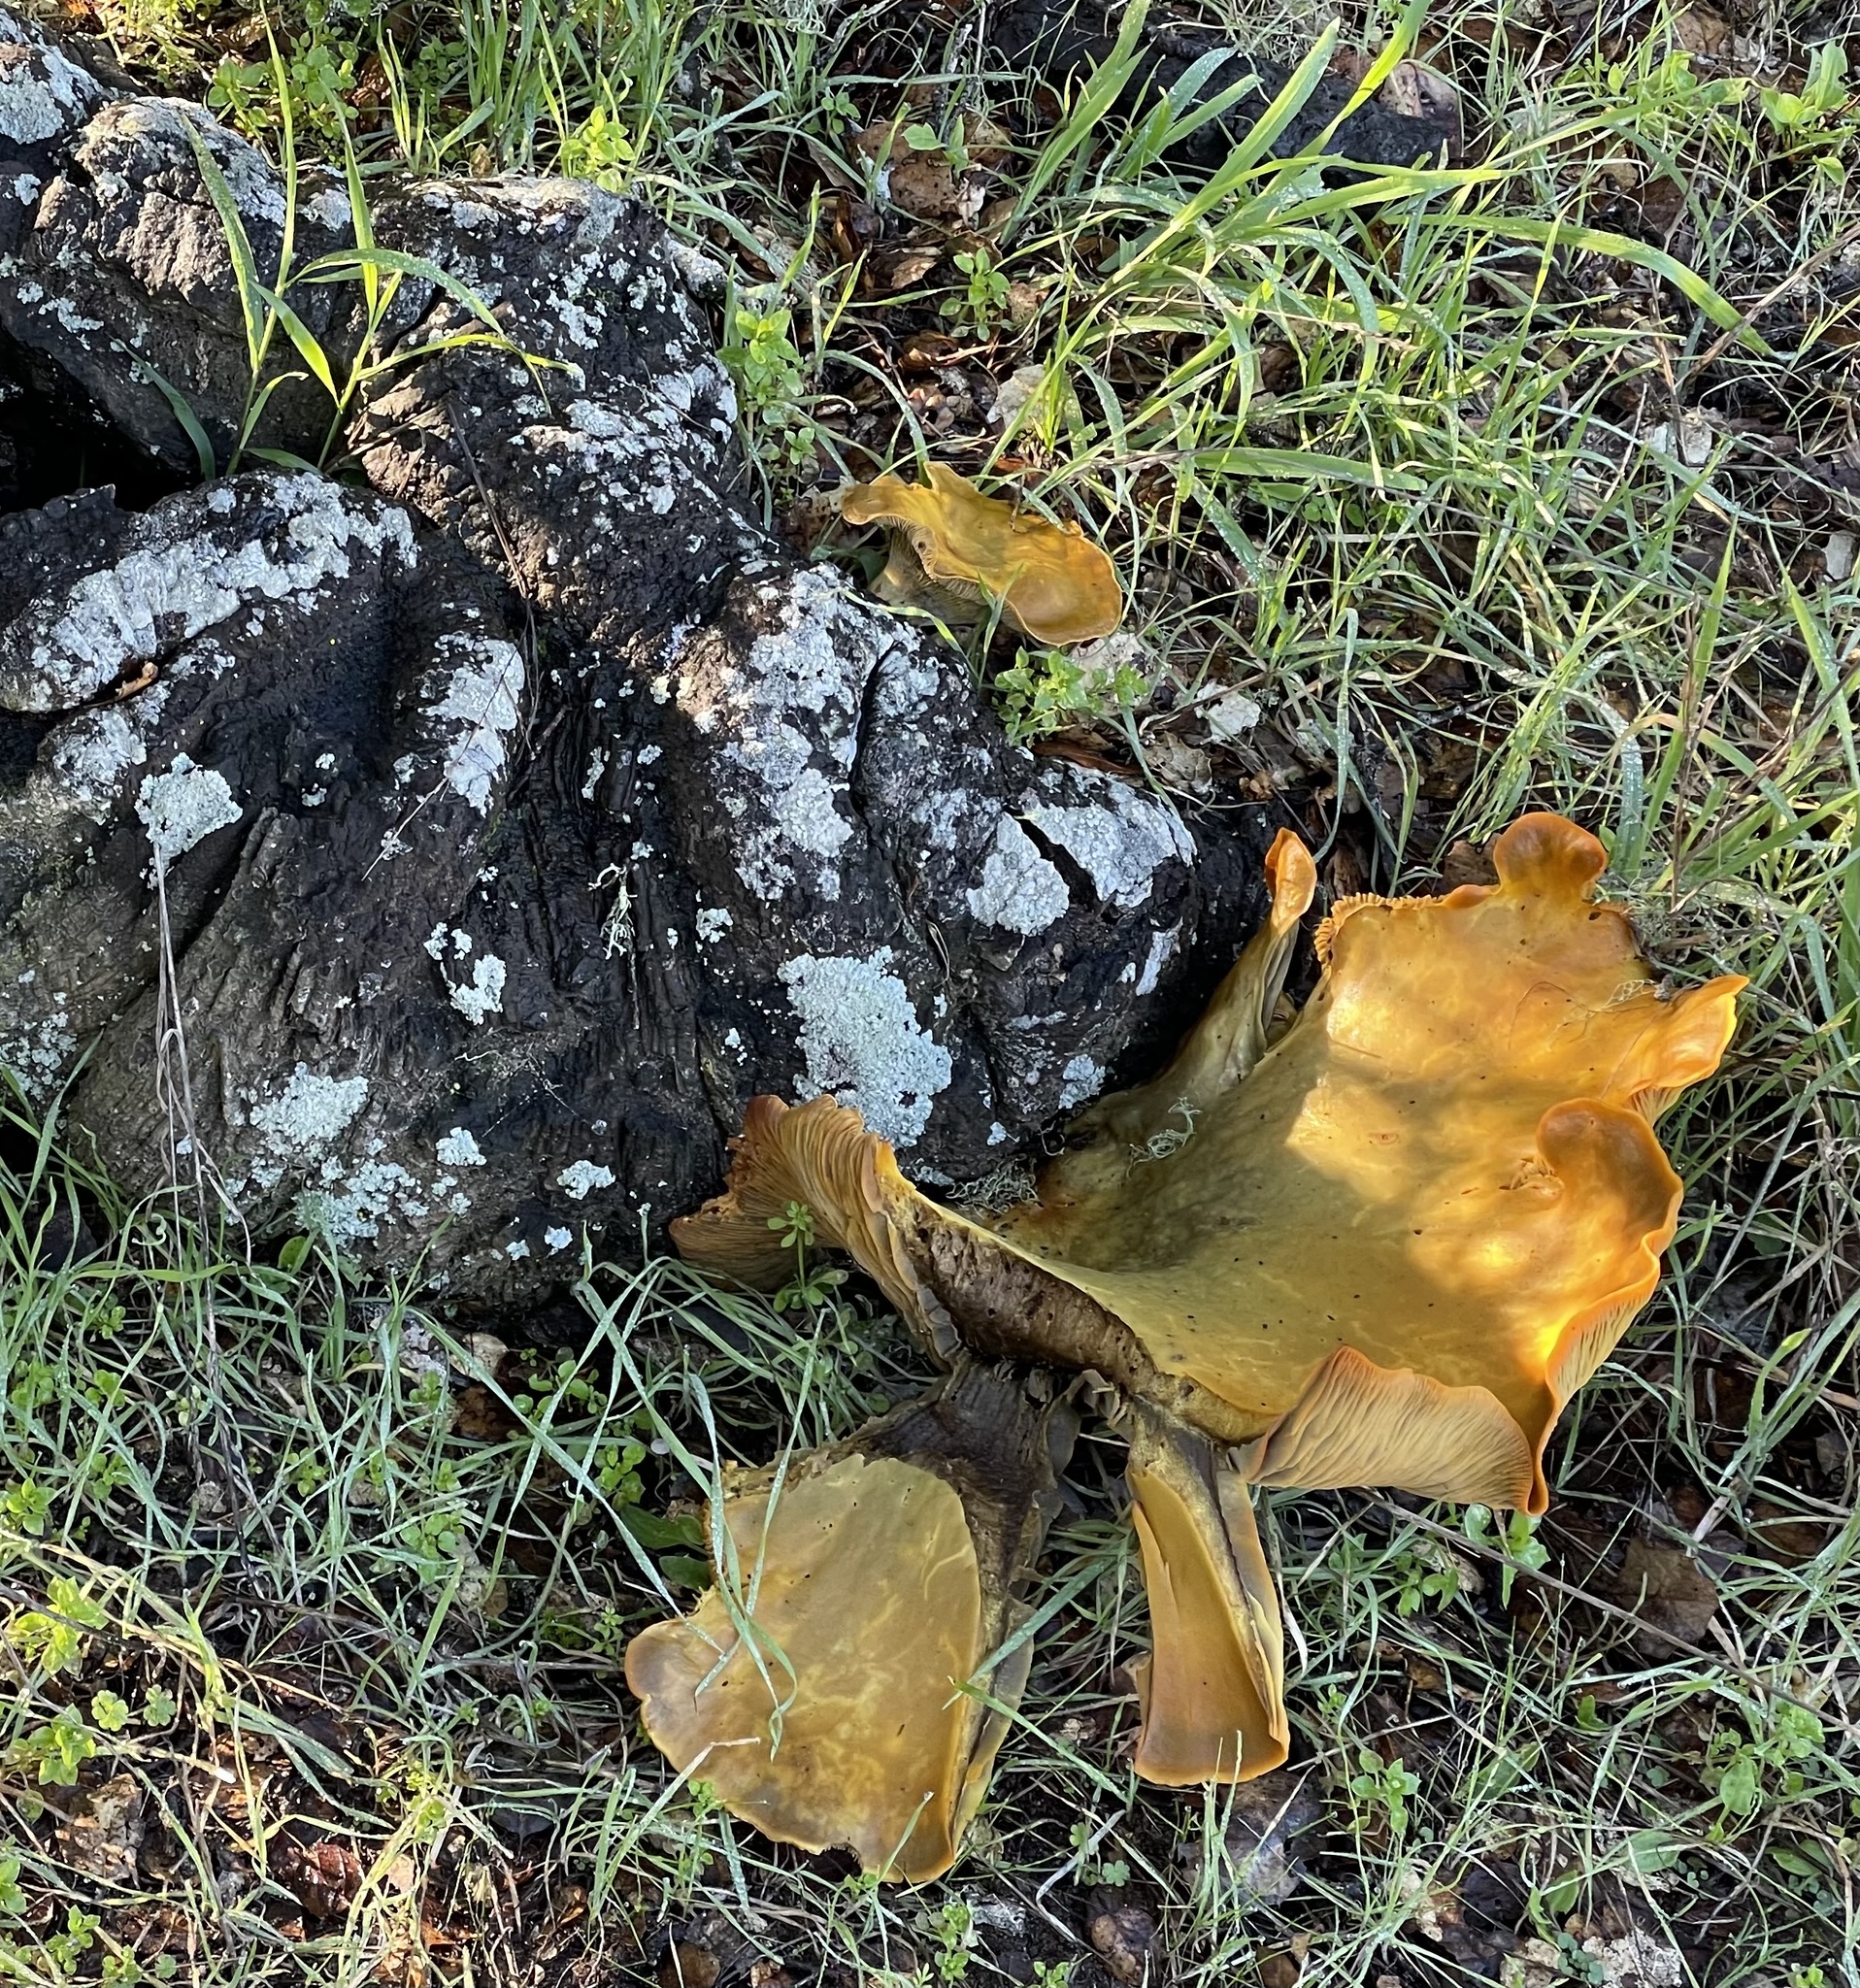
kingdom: Fungi
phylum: Basidiomycota
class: Agaricomycetes
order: Agaricales
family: Omphalotaceae
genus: Omphalotus
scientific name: Omphalotus olivascens
